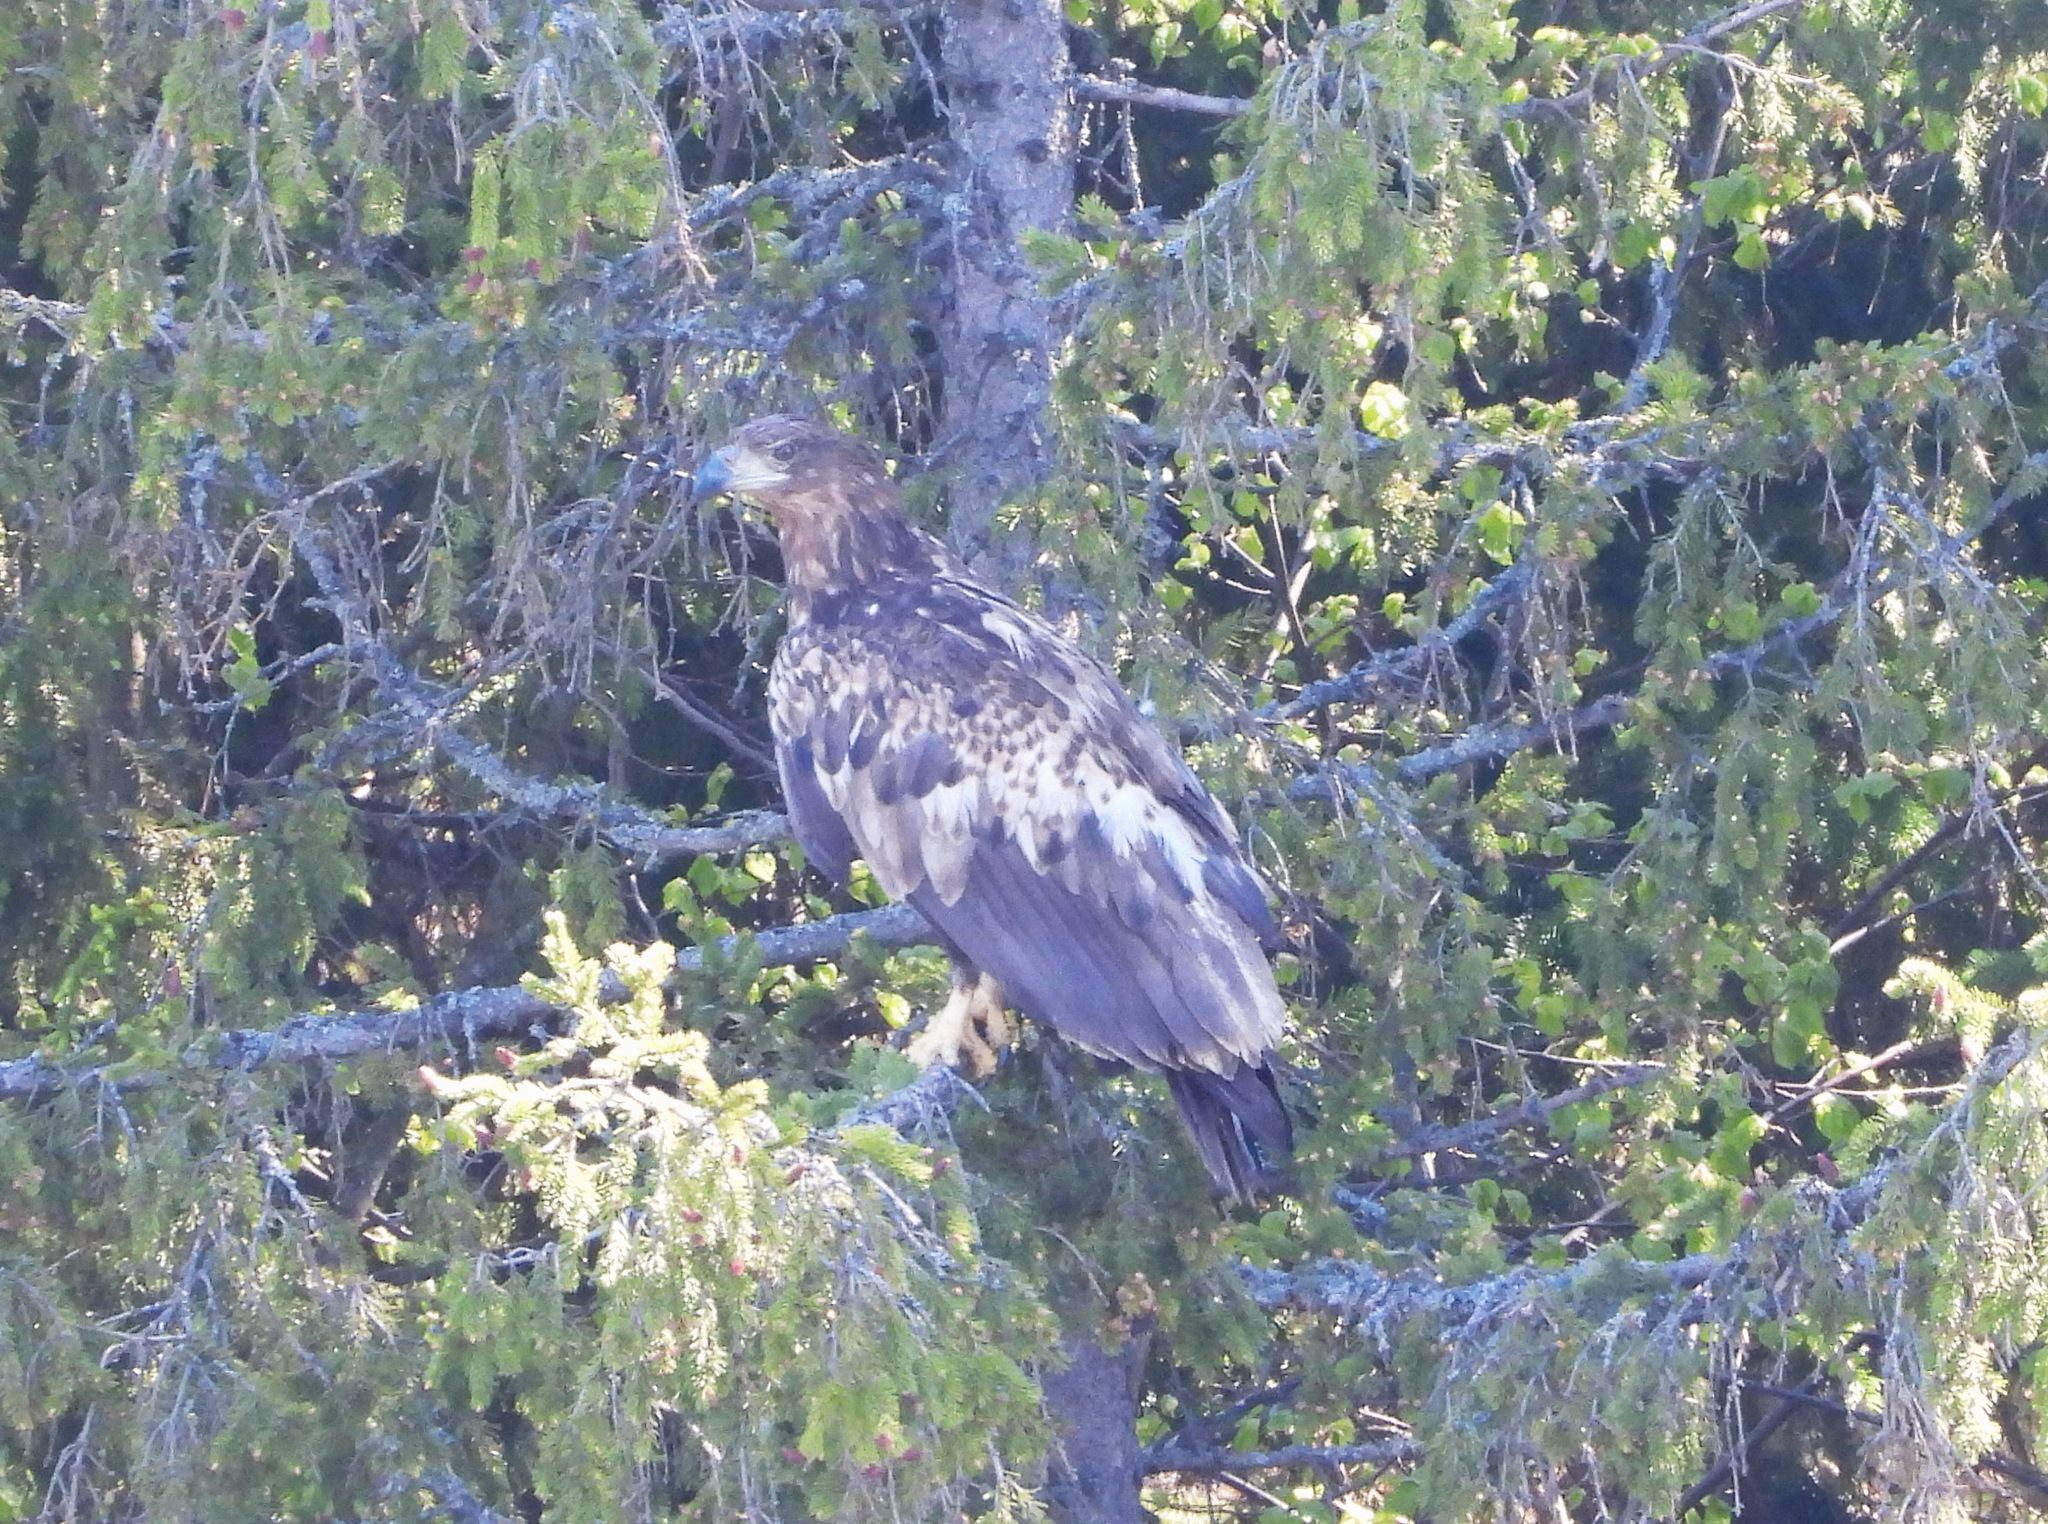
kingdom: Animalia
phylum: Chordata
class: Aves
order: Accipitriformes
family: Accipitridae
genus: Haliaeetus
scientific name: Haliaeetus albicilla
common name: White-tailed eagle
